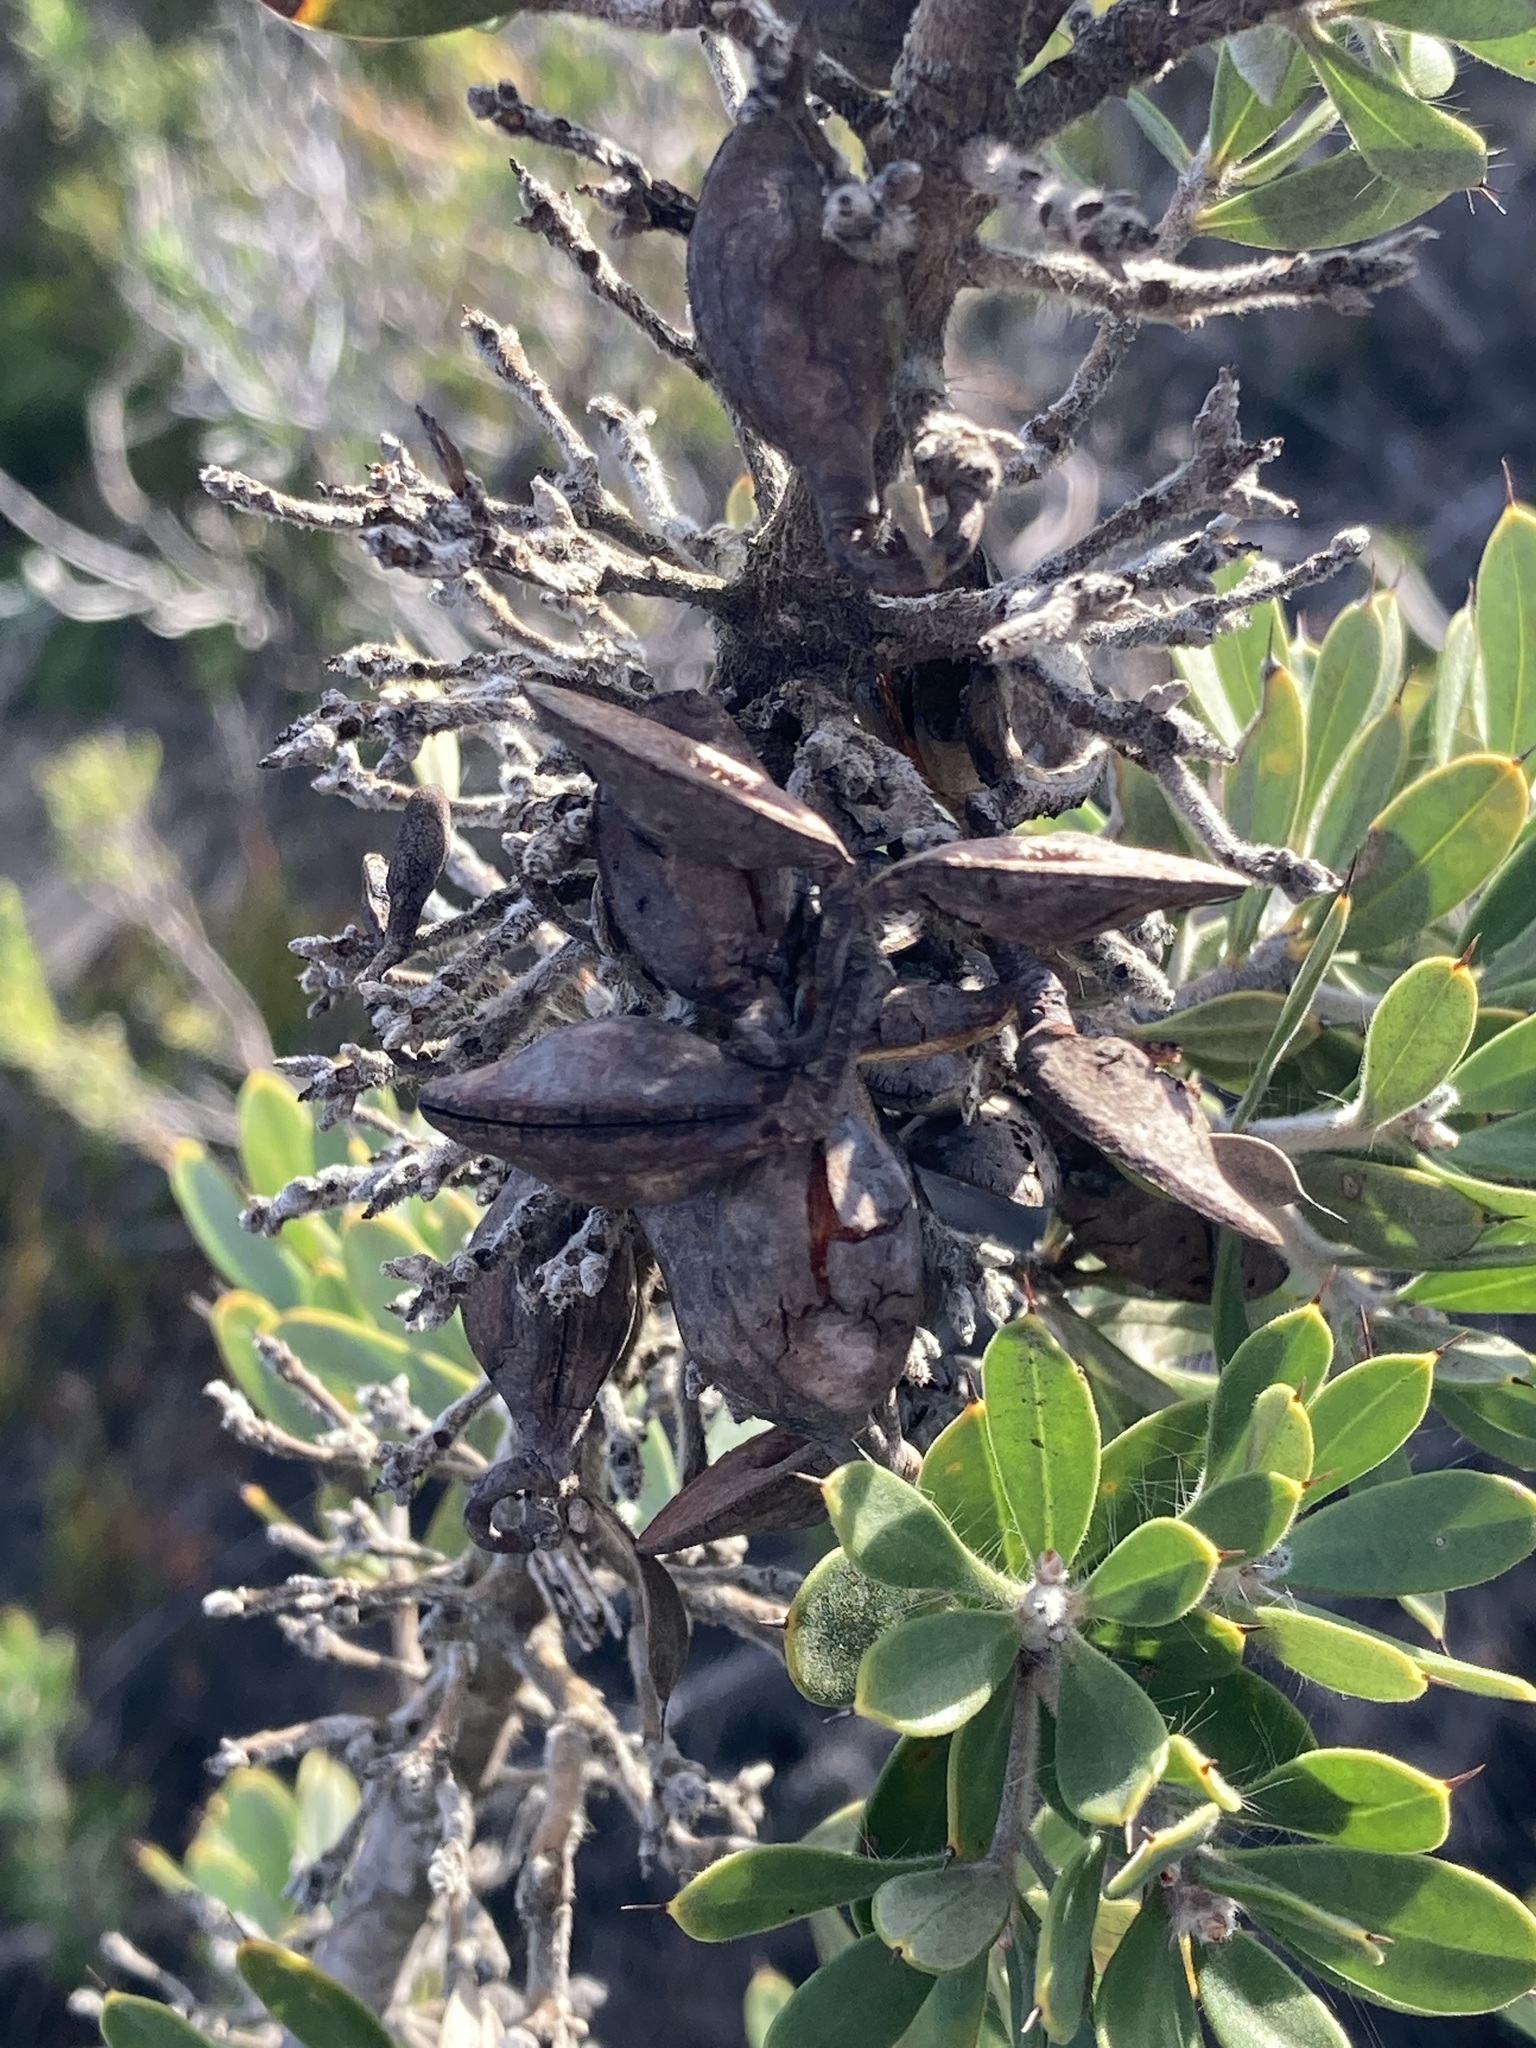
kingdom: Plantae
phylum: Tracheophyta
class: Magnoliopsida
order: Proteales
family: Proteaceae
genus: Hakea
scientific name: Hakea ruscifolia
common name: Candle hakea
